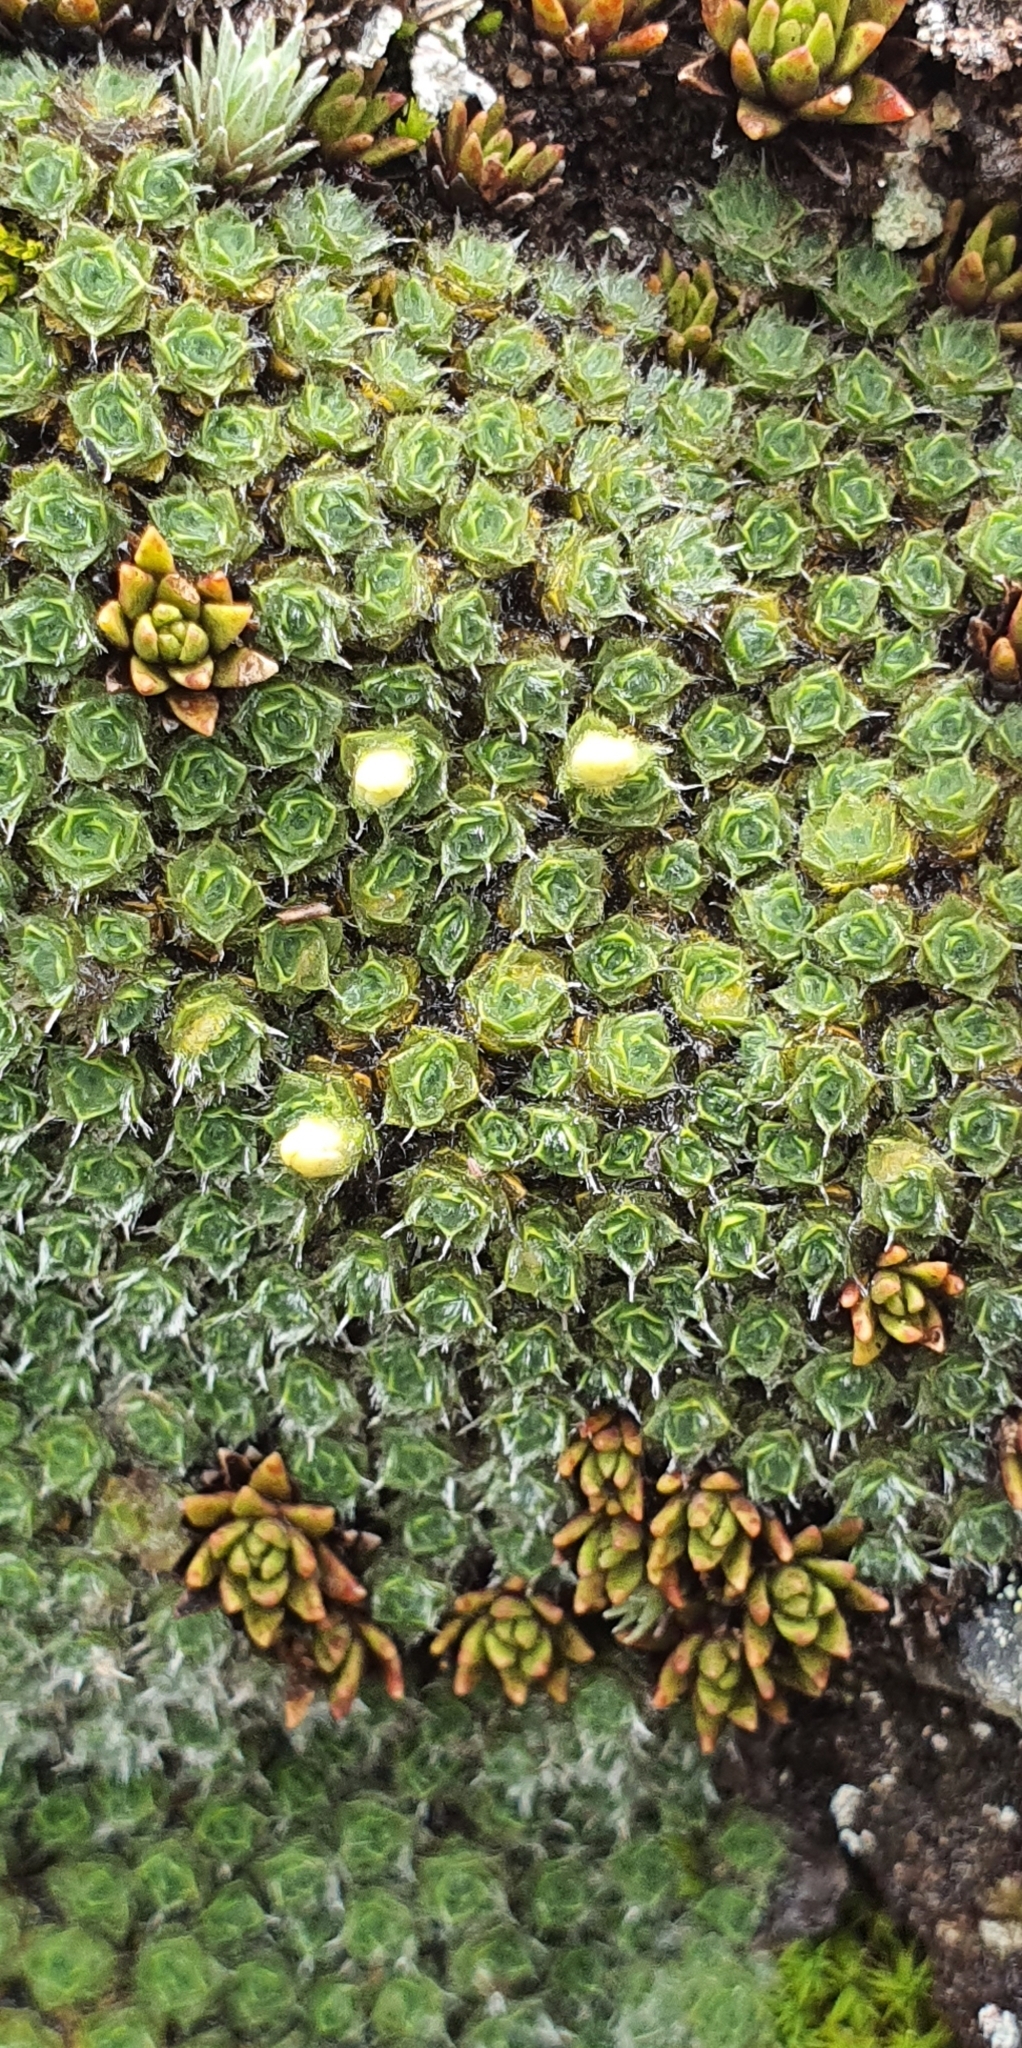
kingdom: Plantae
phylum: Tracheophyta
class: Magnoliopsida
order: Lamiales
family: Plantaginaceae
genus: Veronica
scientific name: Veronica thomsonii
